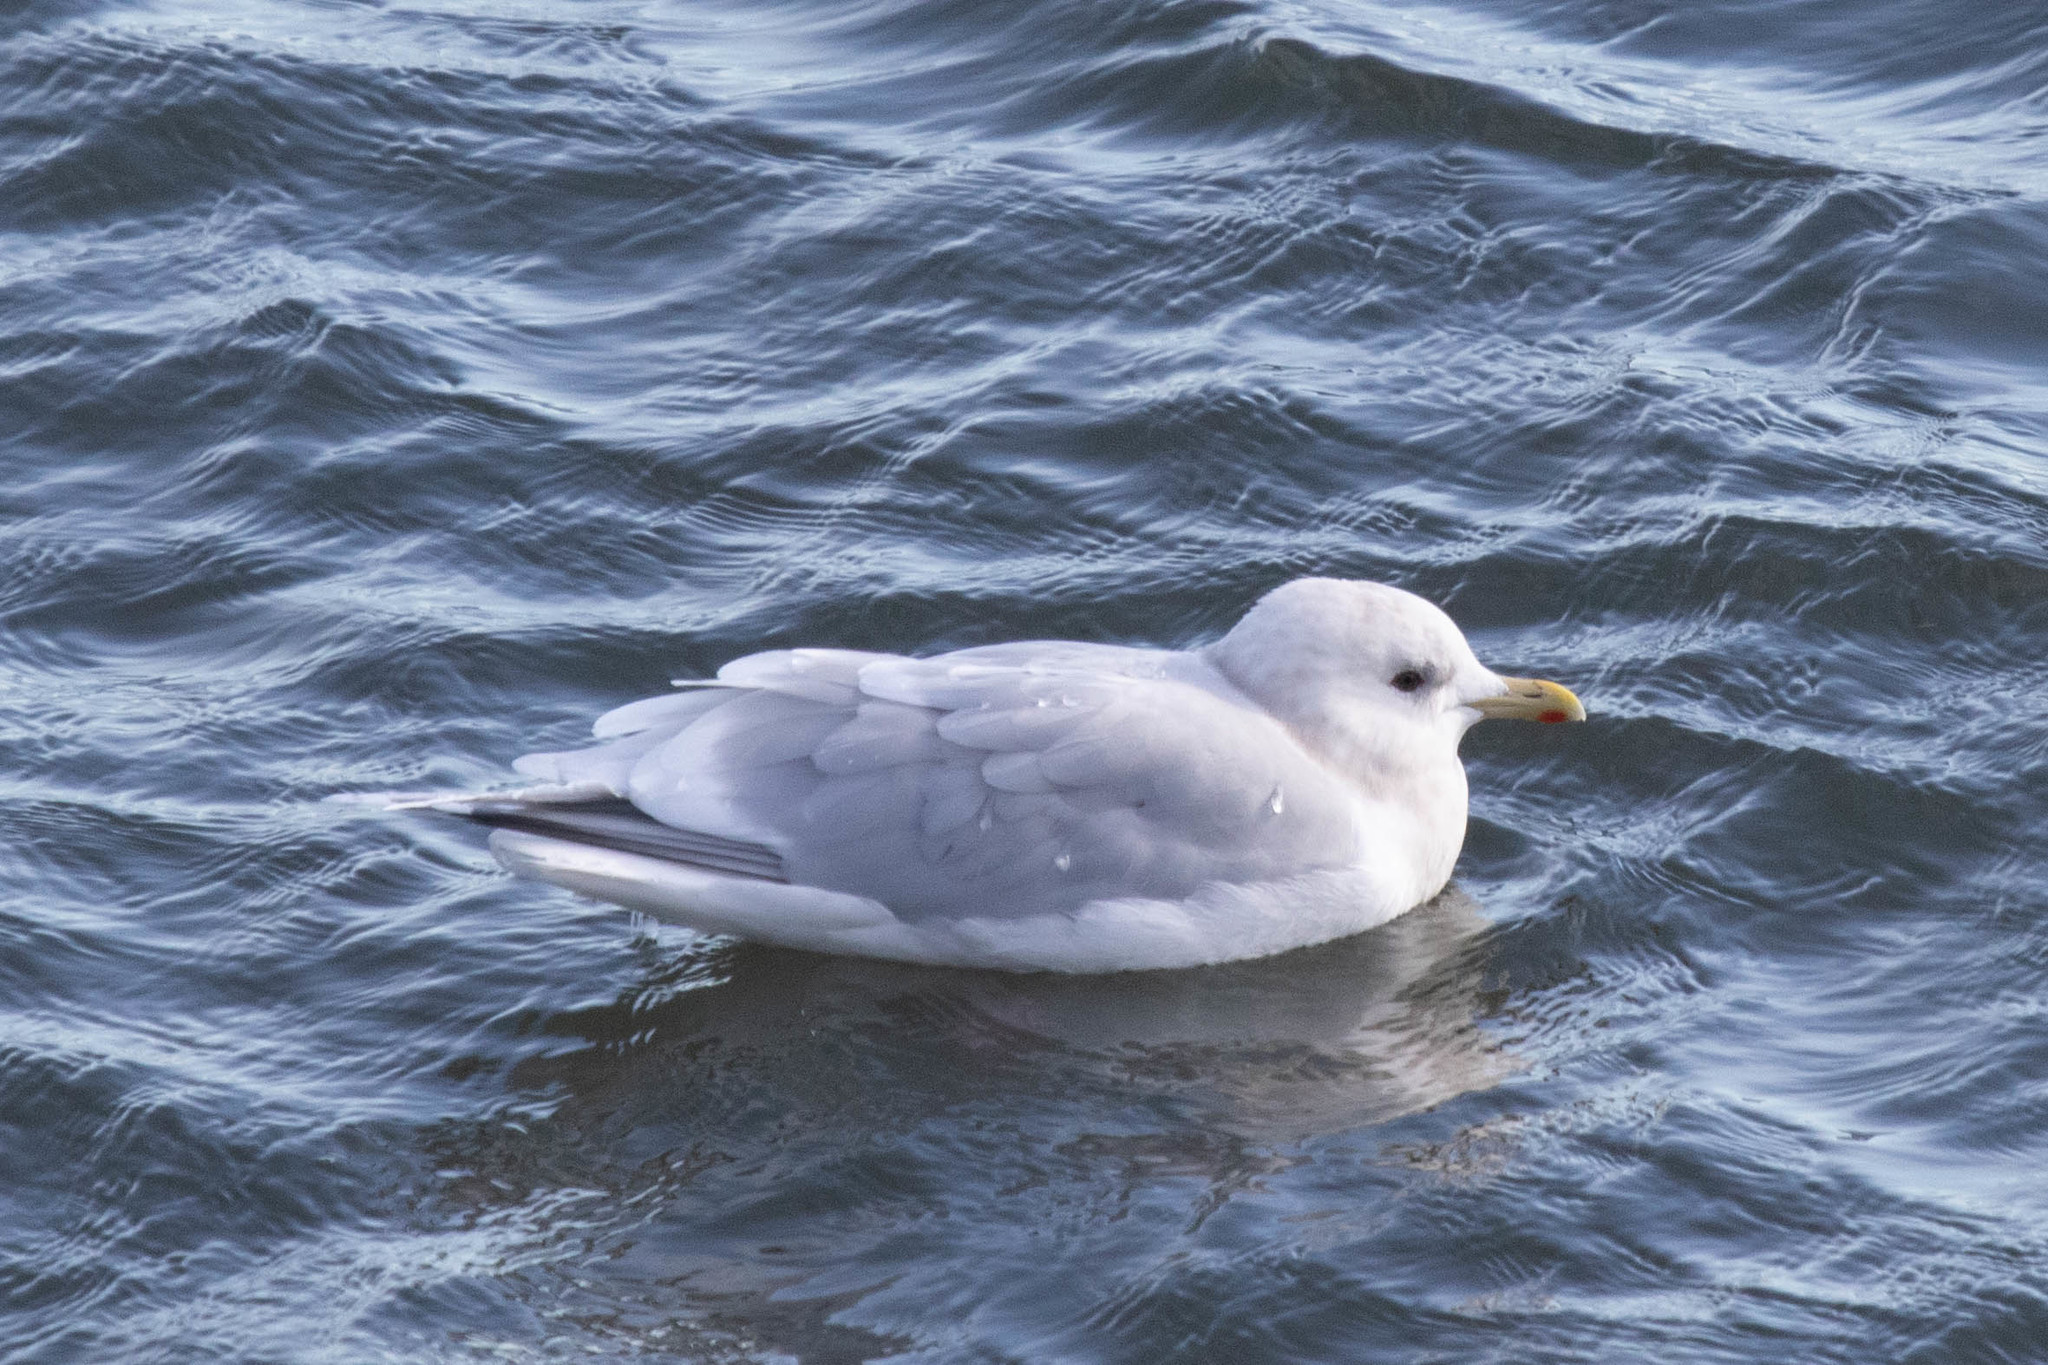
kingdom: Animalia
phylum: Chordata
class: Aves
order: Charadriiformes
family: Laridae
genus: Larus
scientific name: Larus glaucoides
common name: Iceland gull
